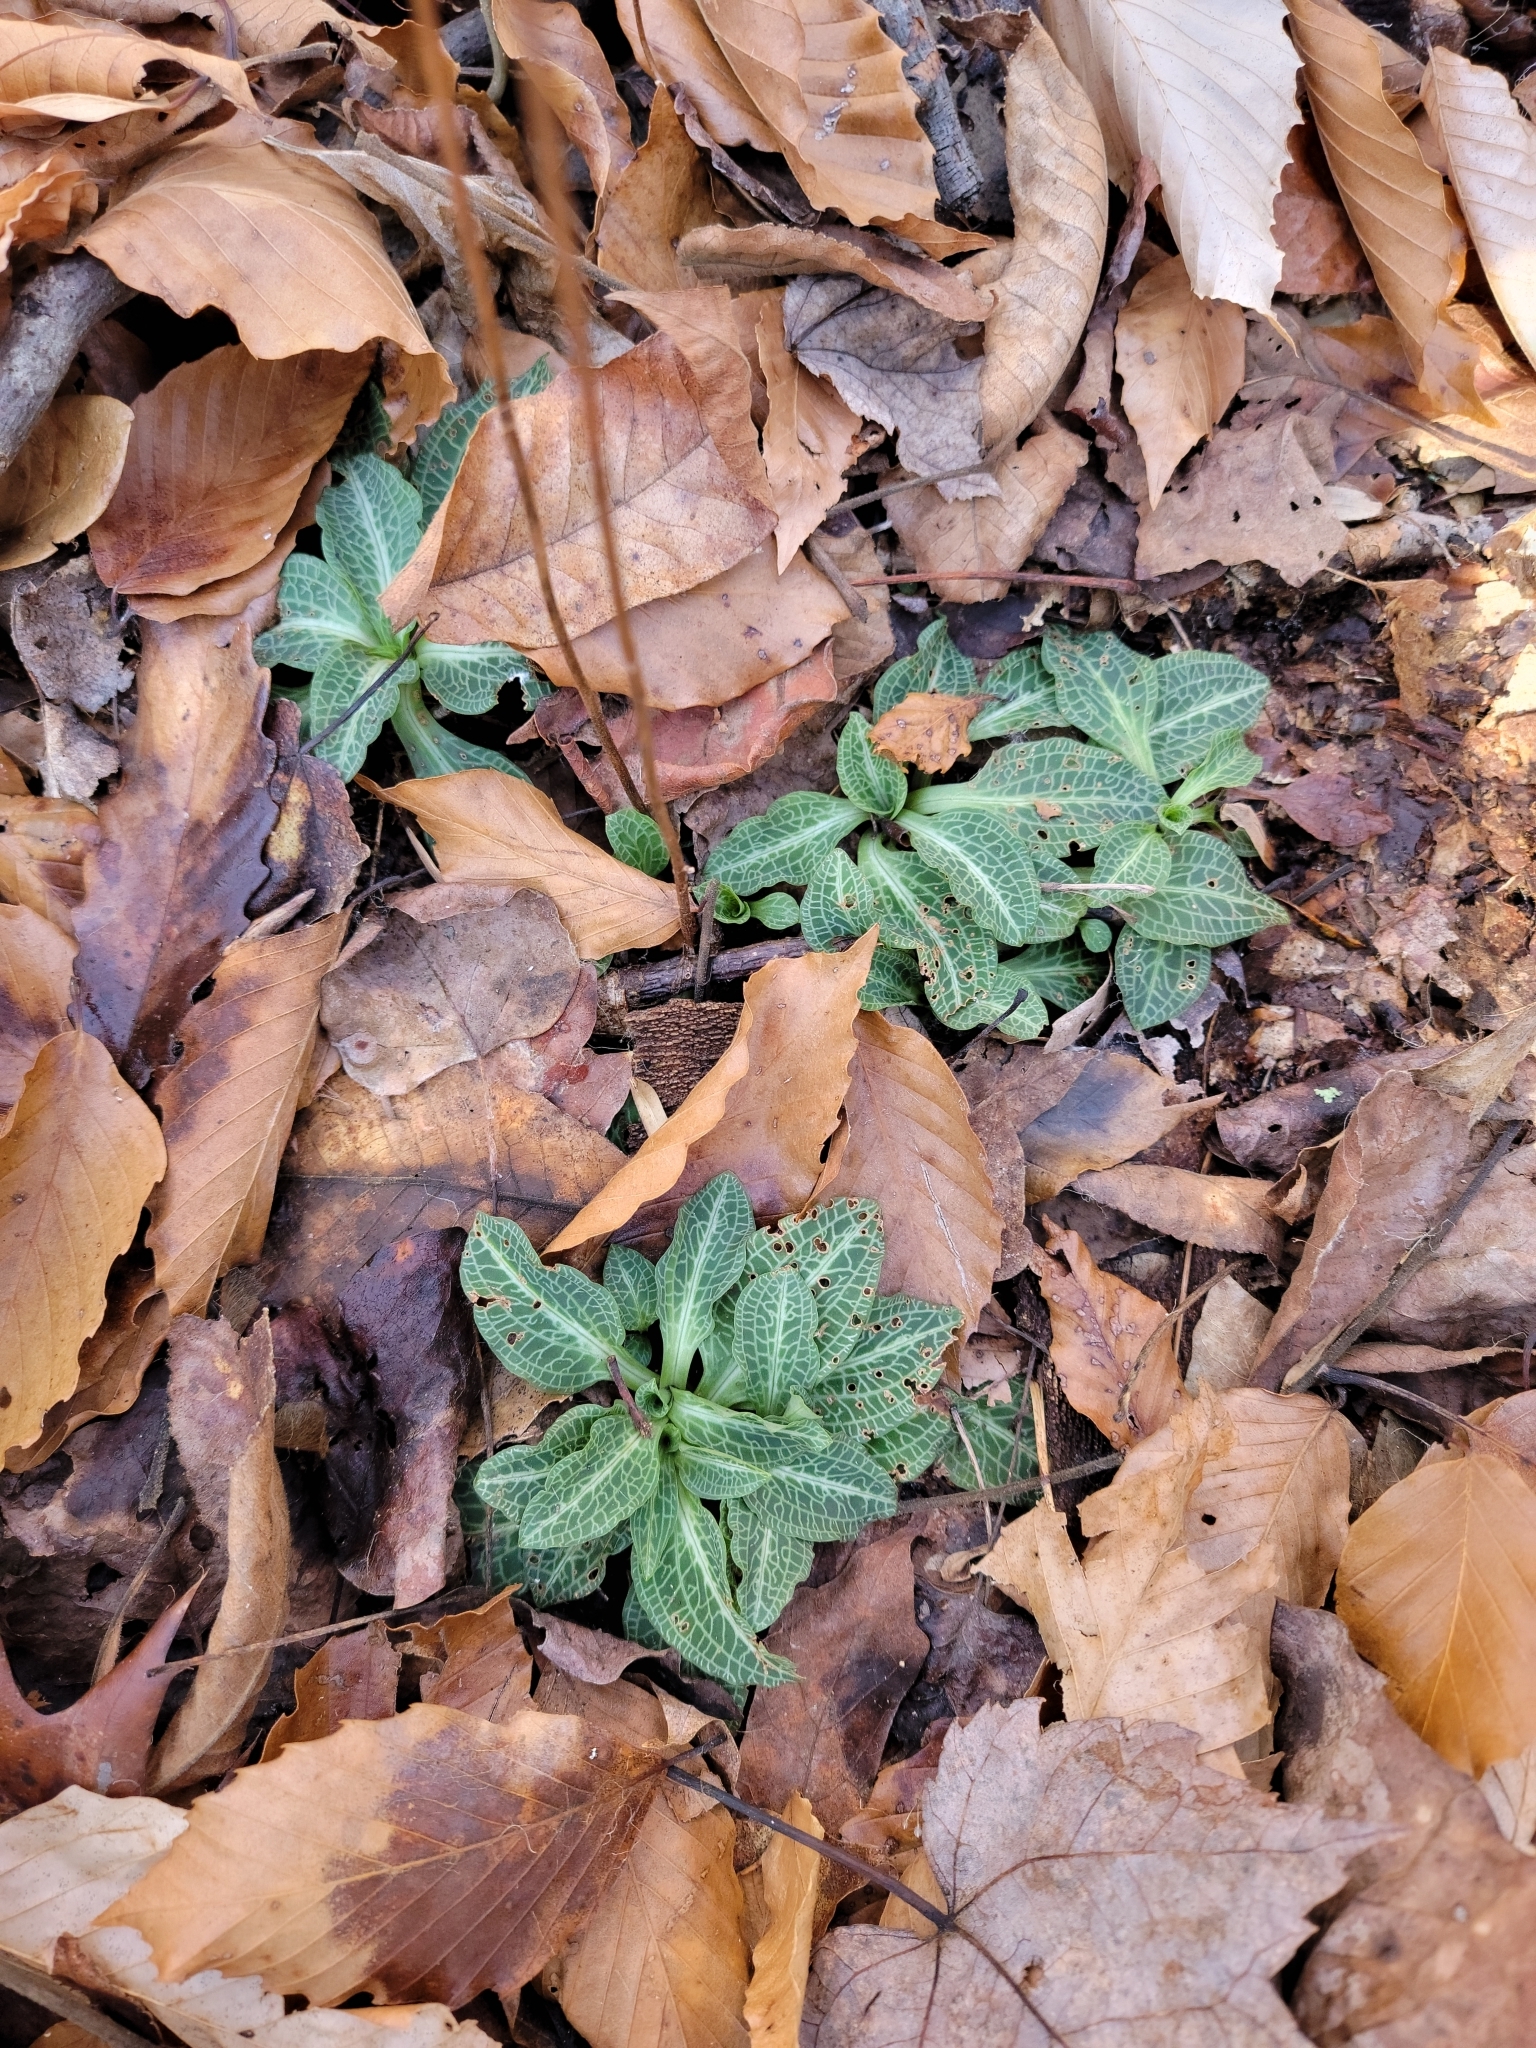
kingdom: Plantae
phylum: Tracheophyta
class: Liliopsida
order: Asparagales
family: Orchidaceae
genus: Goodyera
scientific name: Goodyera pubescens
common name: Downy rattlesnake-plantain
